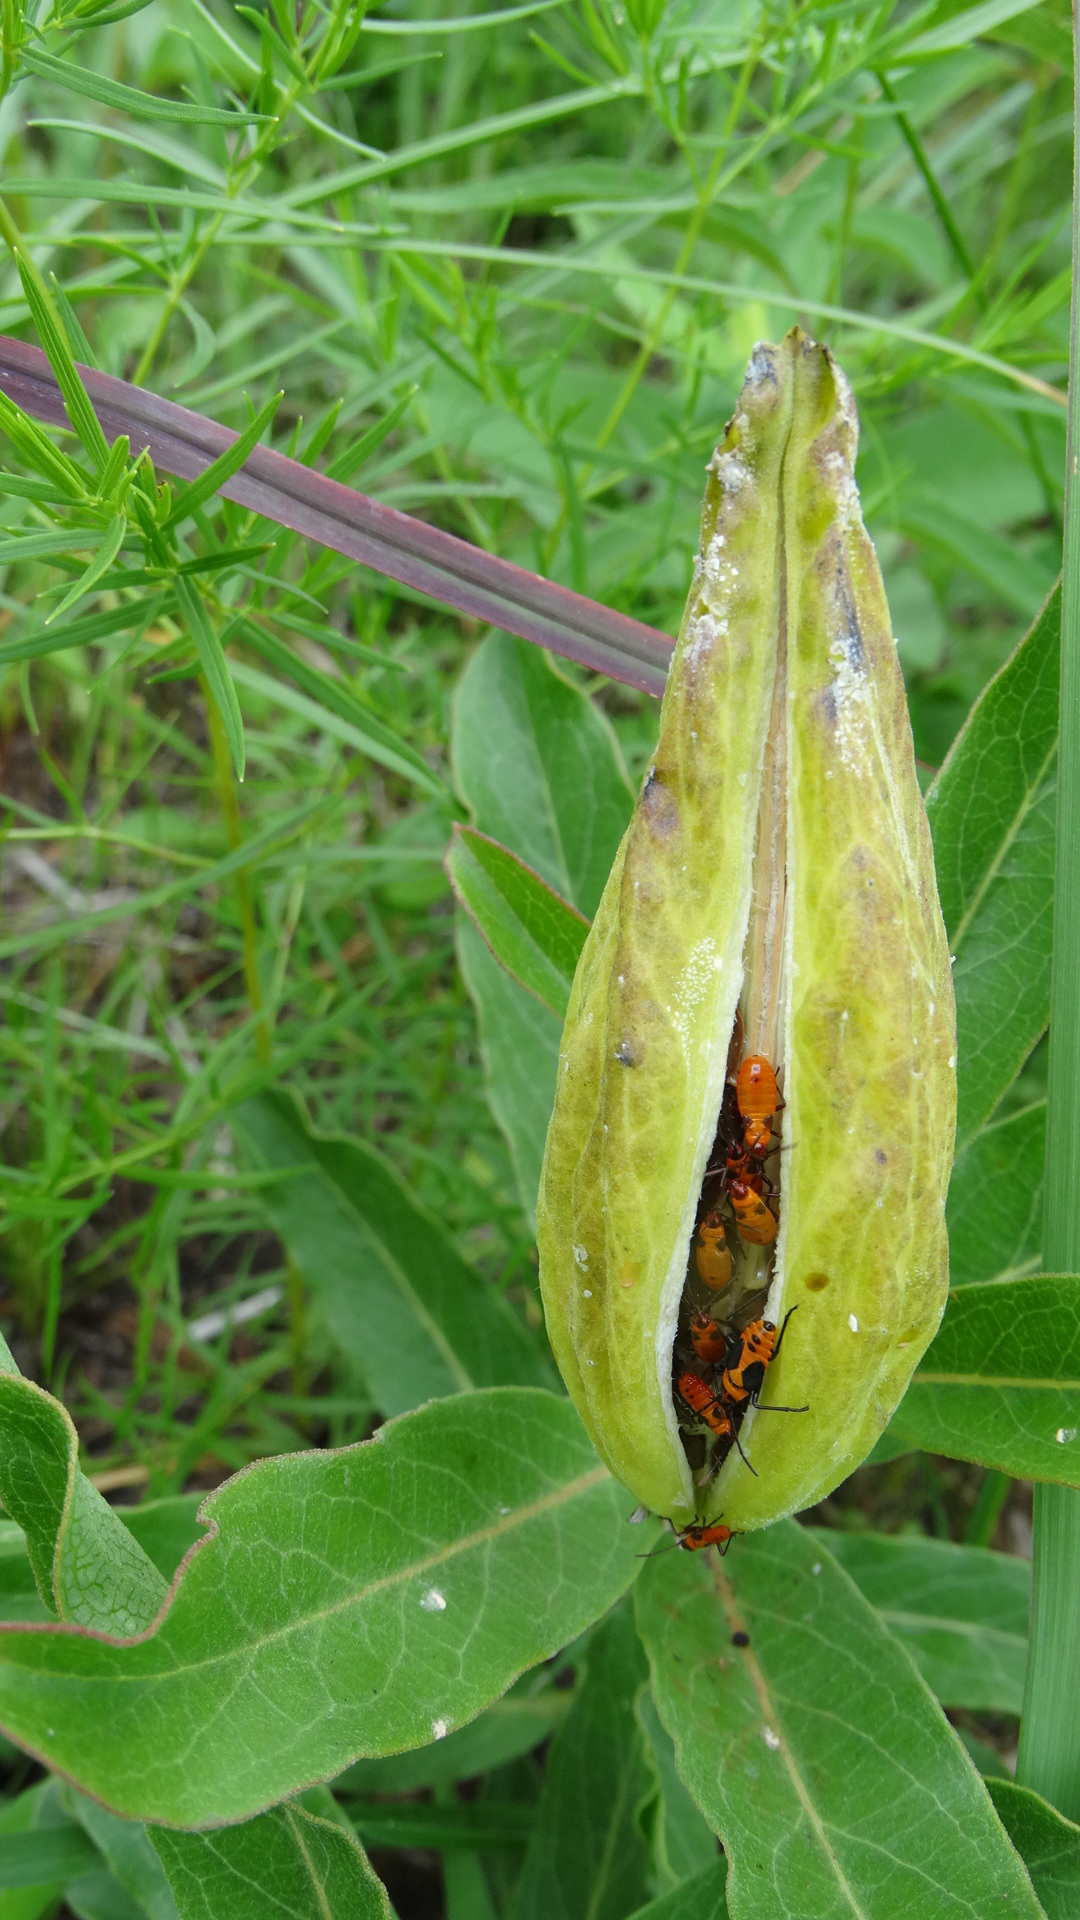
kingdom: Animalia
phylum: Arthropoda
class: Insecta
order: Hemiptera
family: Lygaeidae
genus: Oncopeltus
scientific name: Oncopeltus fasciatus
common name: Large milkweed bug
